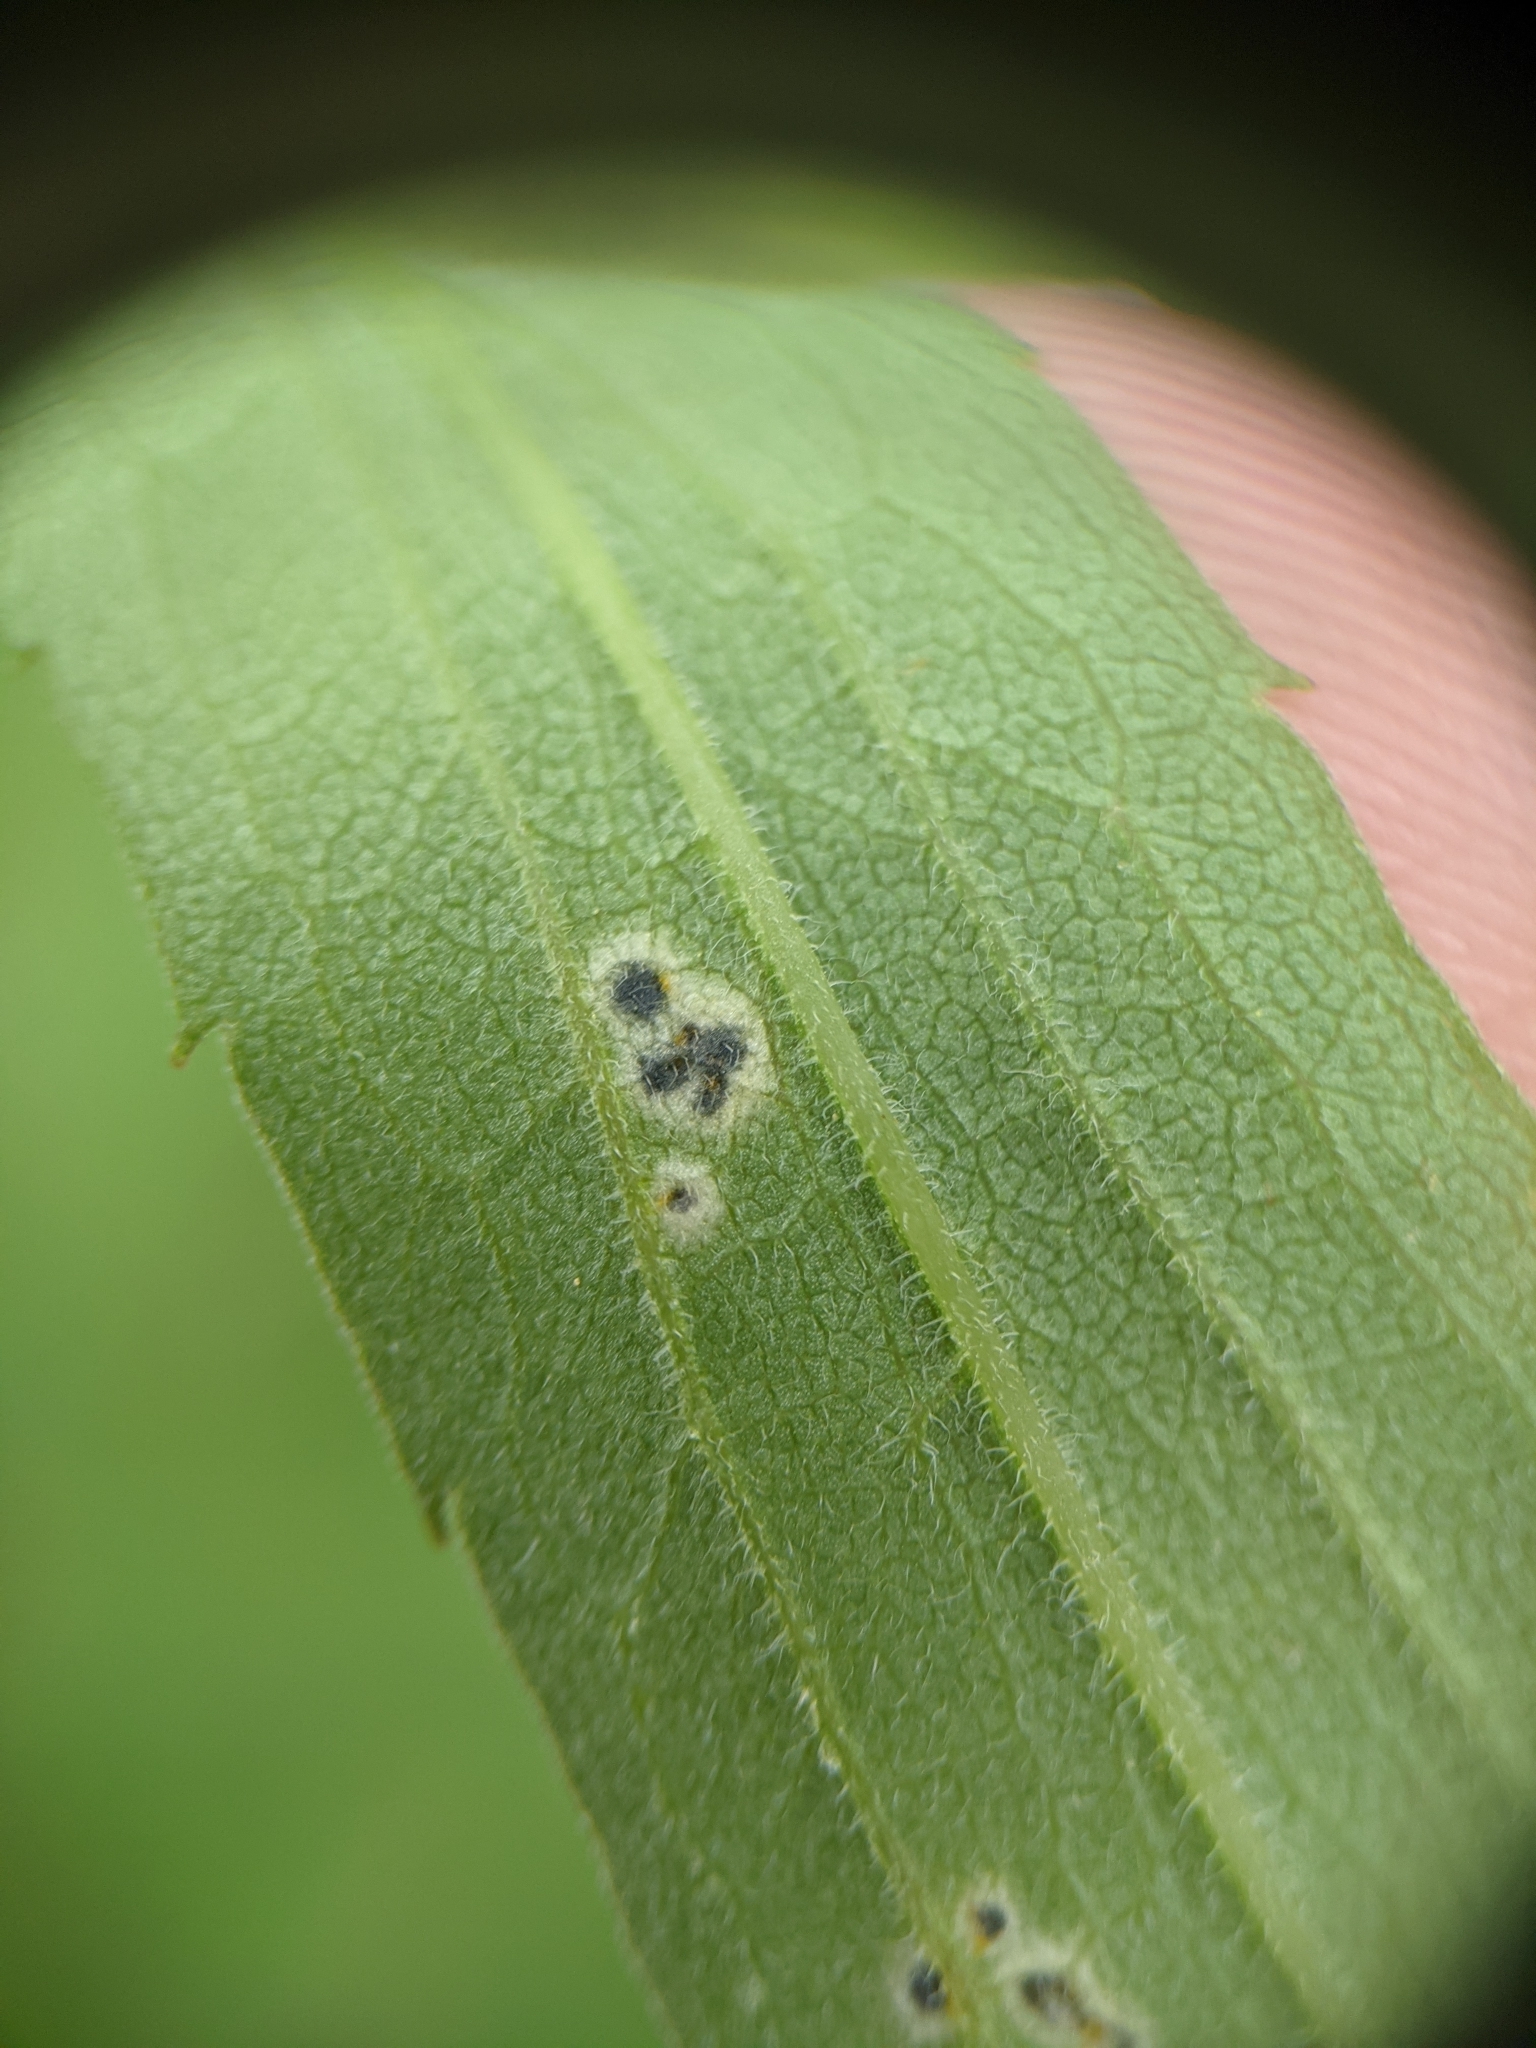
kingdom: Animalia
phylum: Arthropoda
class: Insecta
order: Diptera
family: Cecidomyiidae
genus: Asteromyia
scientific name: Asteromyia carbonifera
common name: Carbonifera goldenrod gall midge
